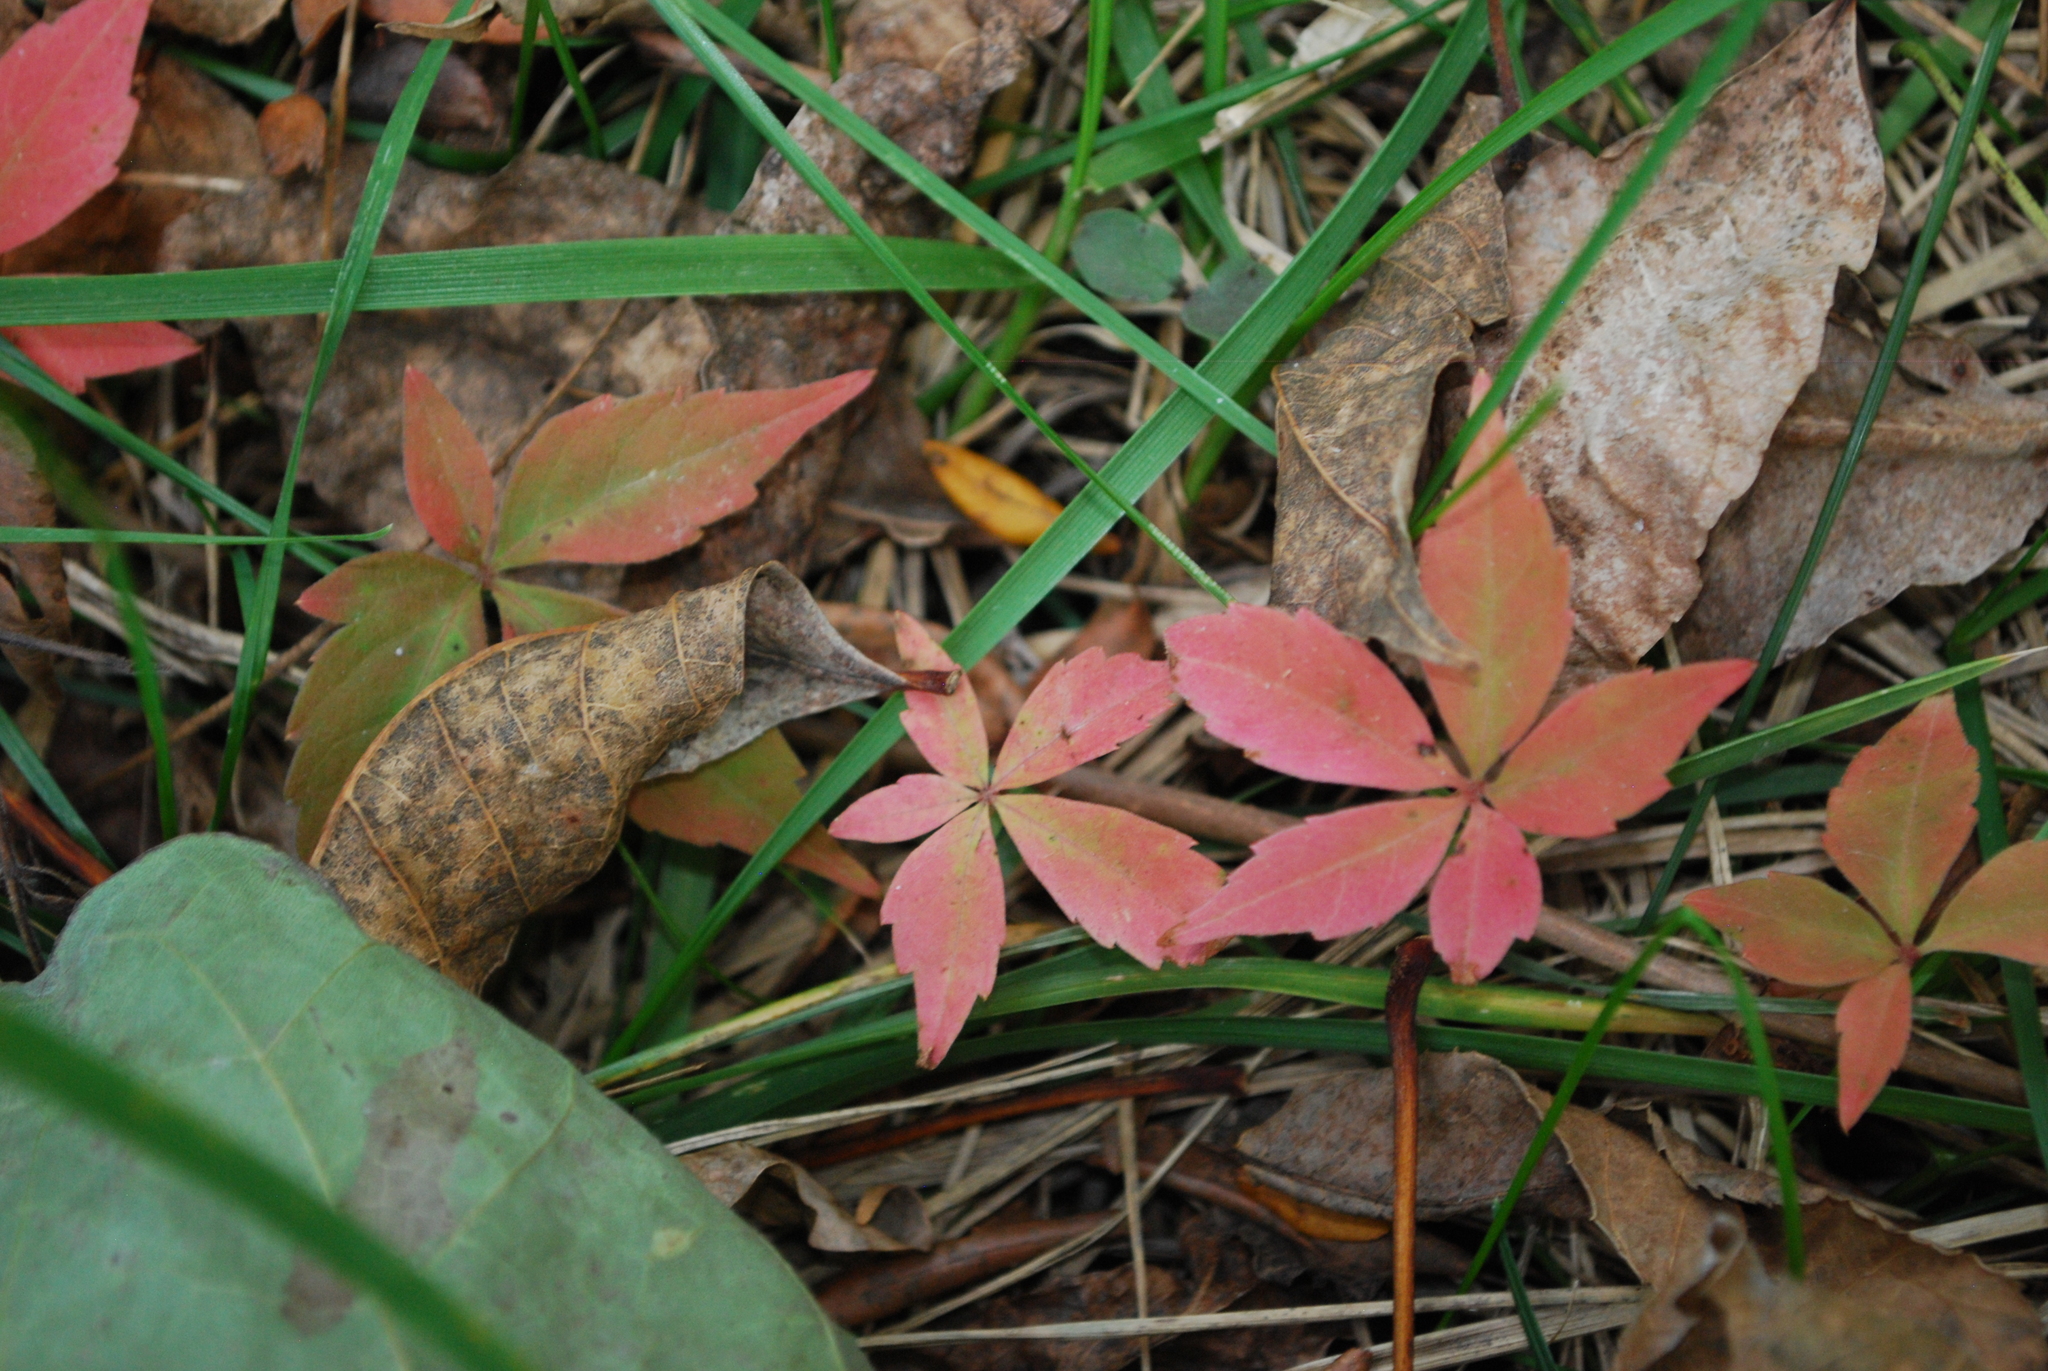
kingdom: Plantae
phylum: Tracheophyta
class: Magnoliopsida
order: Vitales
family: Vitaceae
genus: Parthenocissus
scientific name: Parthenocissus quinquefolia
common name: Virginia-creeper
